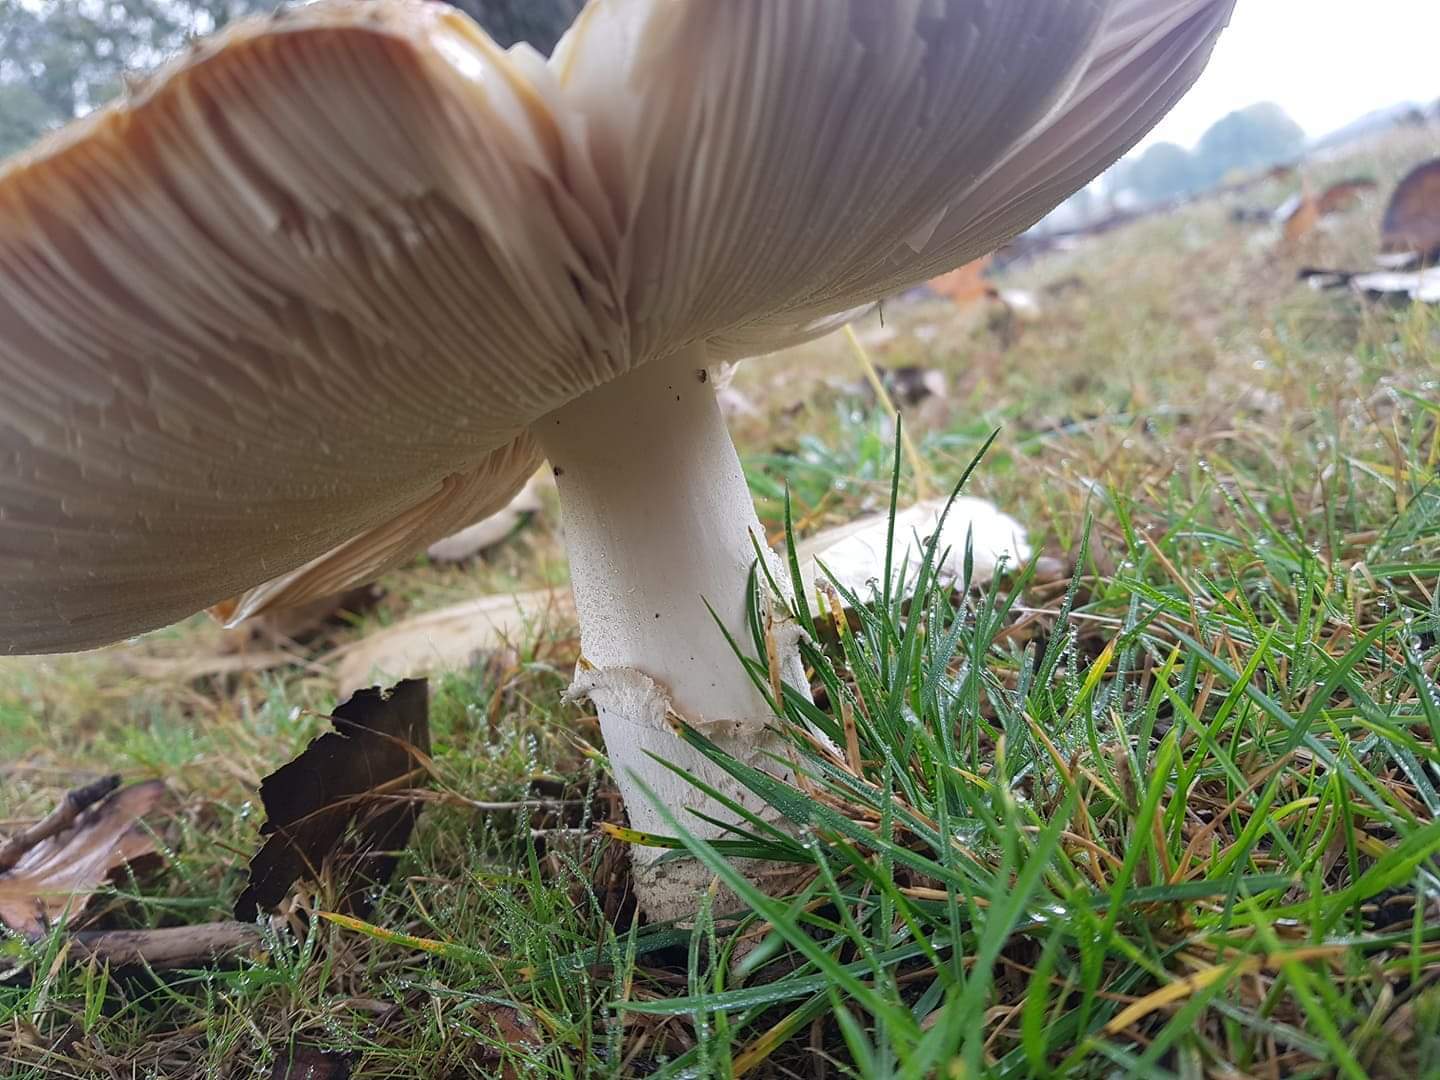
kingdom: Fungi
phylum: Basidiomycota
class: Agaricomycetes
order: Agaricales
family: Amanitaceae
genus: Amanita
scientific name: Amanita muscaria
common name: Fly agaric
